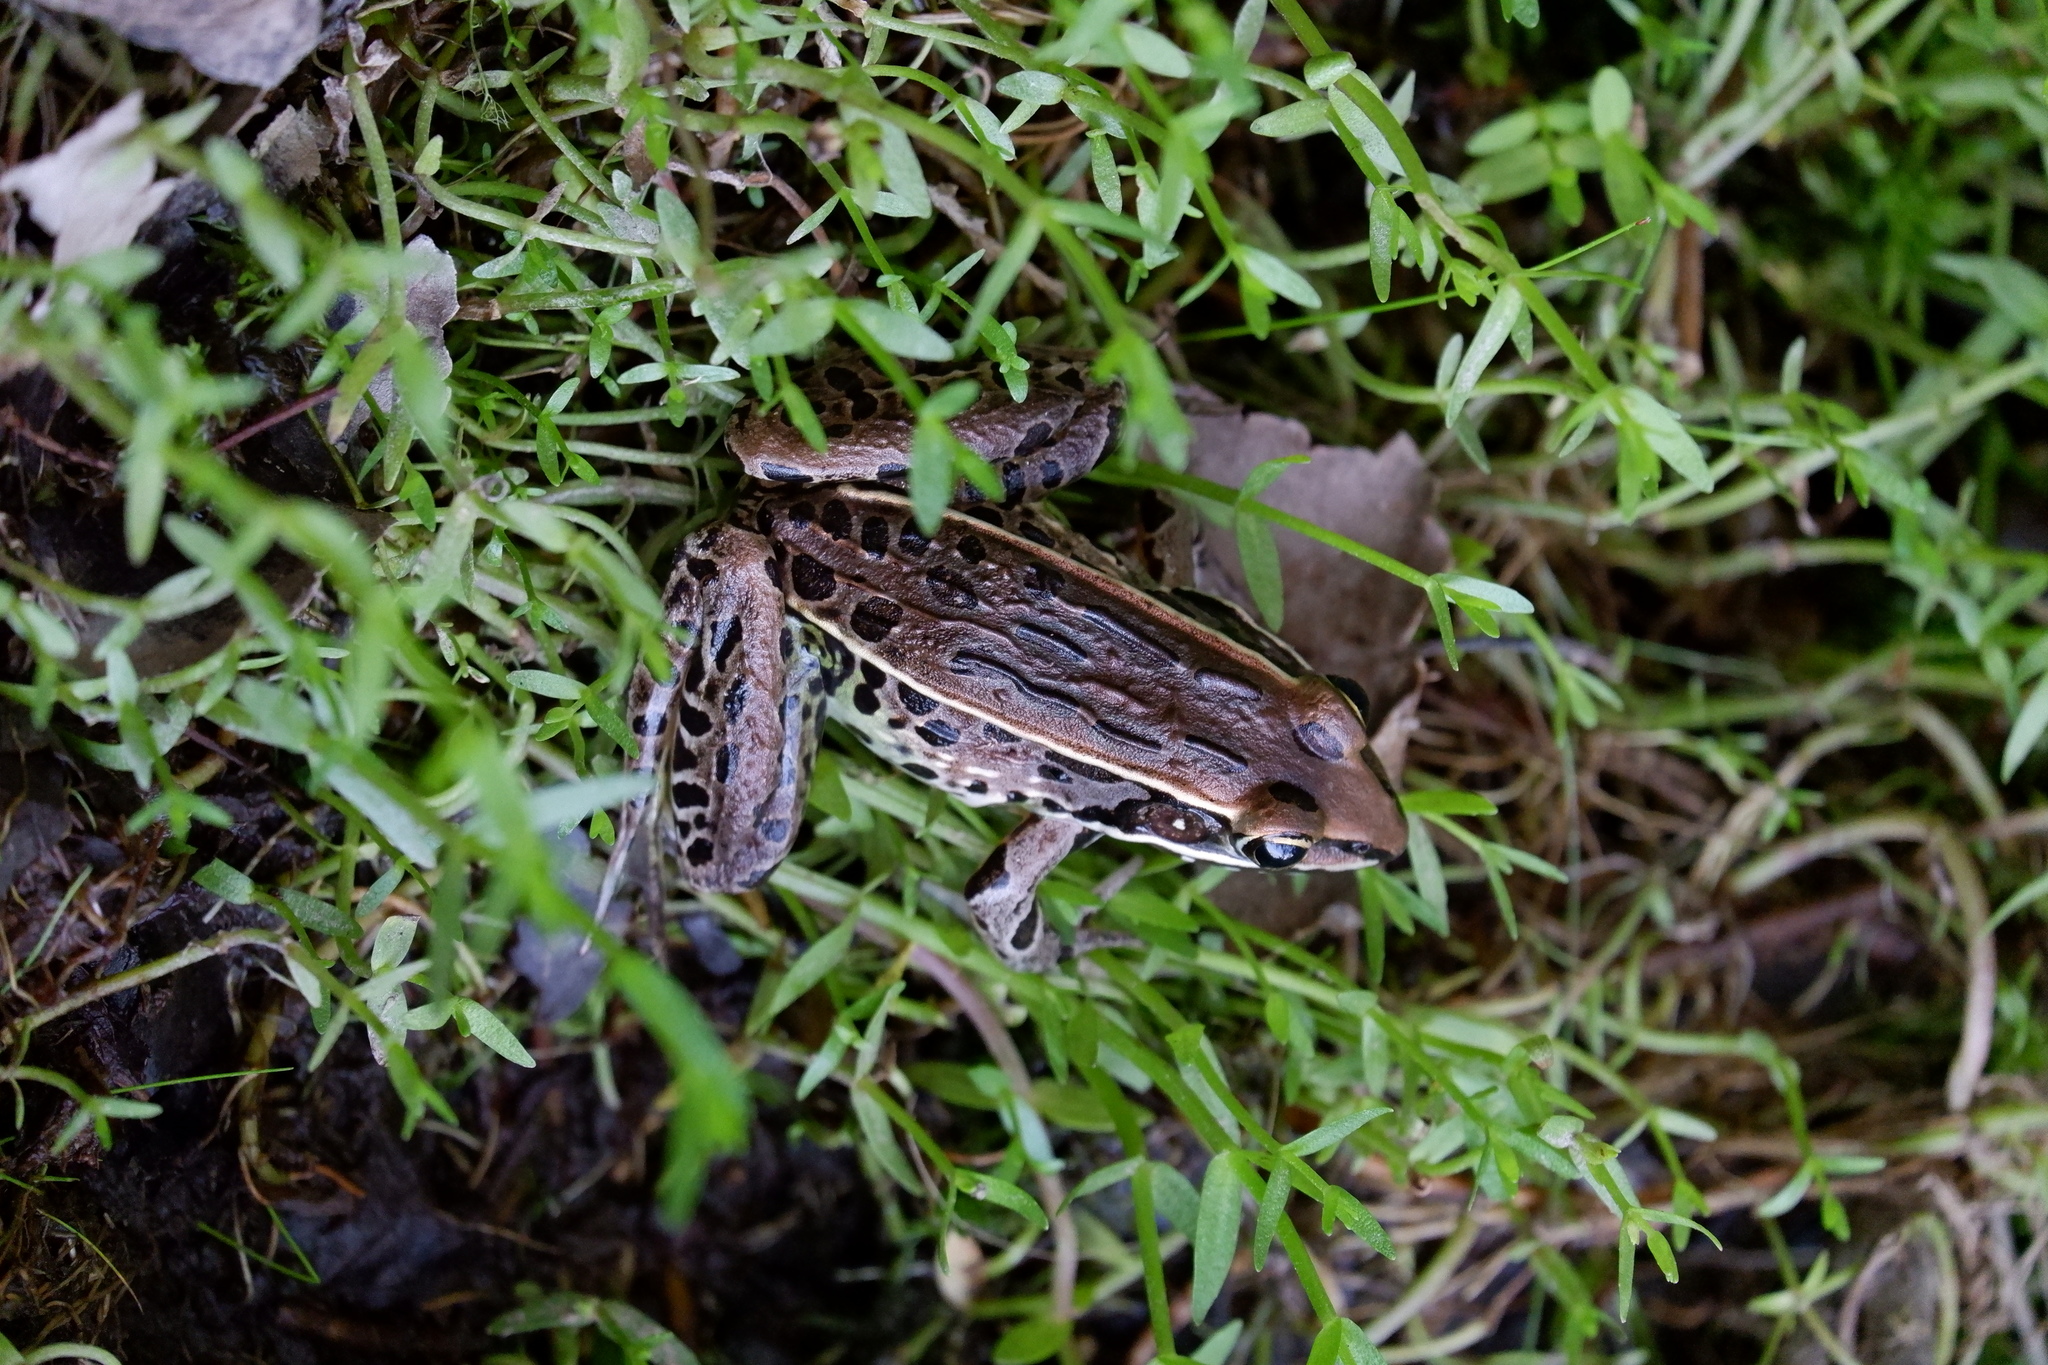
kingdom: Animalia
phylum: Chordata
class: Amphibia
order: Anura
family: Ranidae
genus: Lithobates
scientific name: Lithobates sphenocephalus
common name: Southern leopard frog
